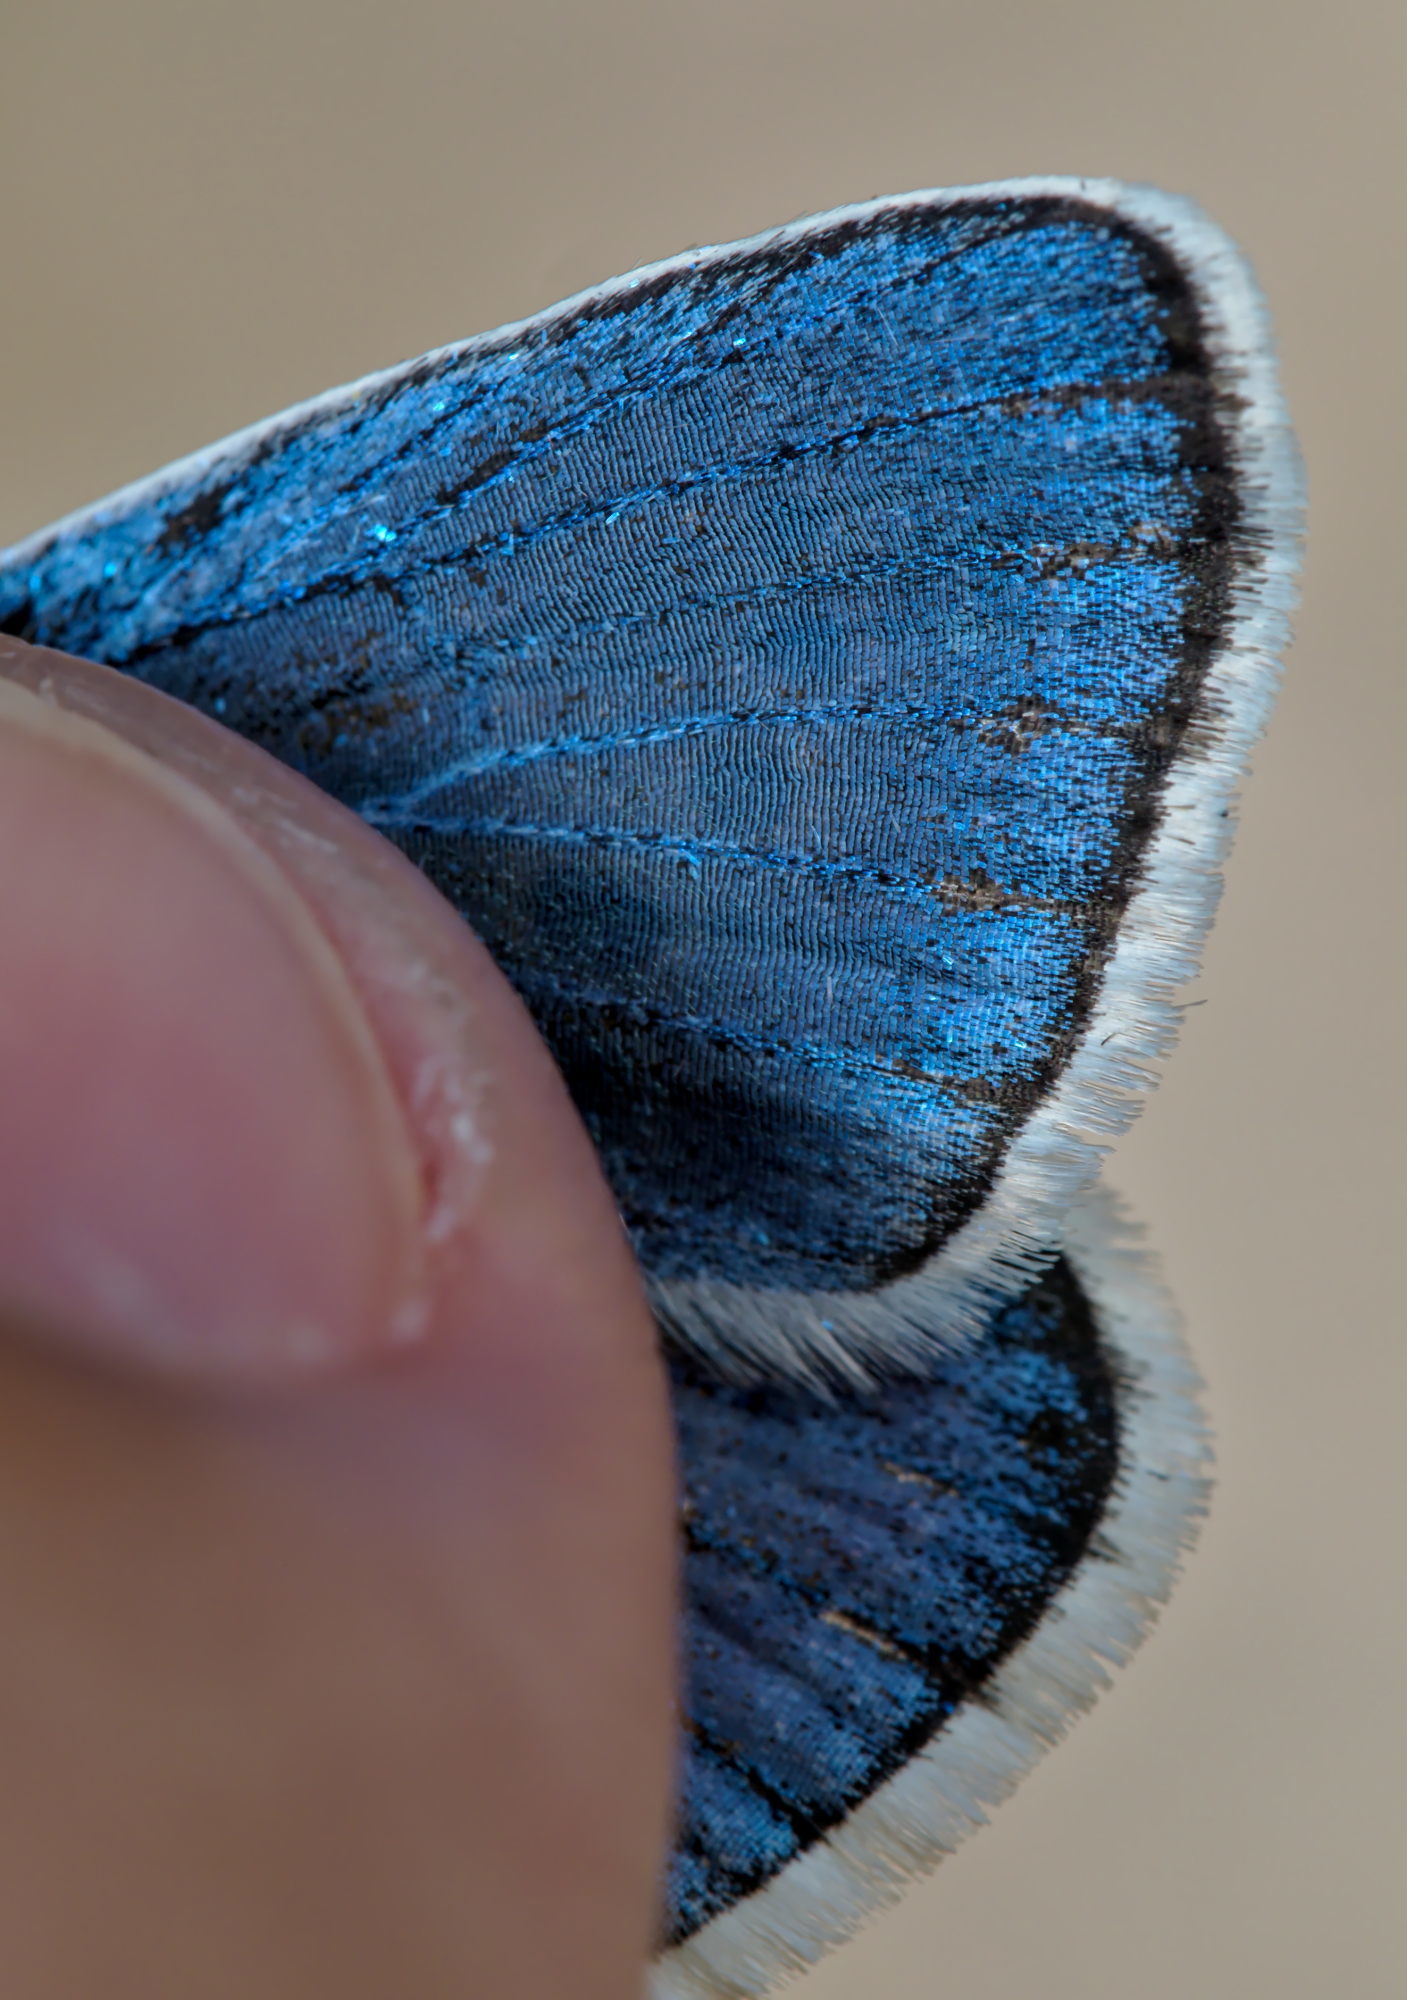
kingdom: Animalia
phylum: Arthropoda
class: Insecta
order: Lepidoptera
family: Lycaenidae
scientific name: Lycaenidae
